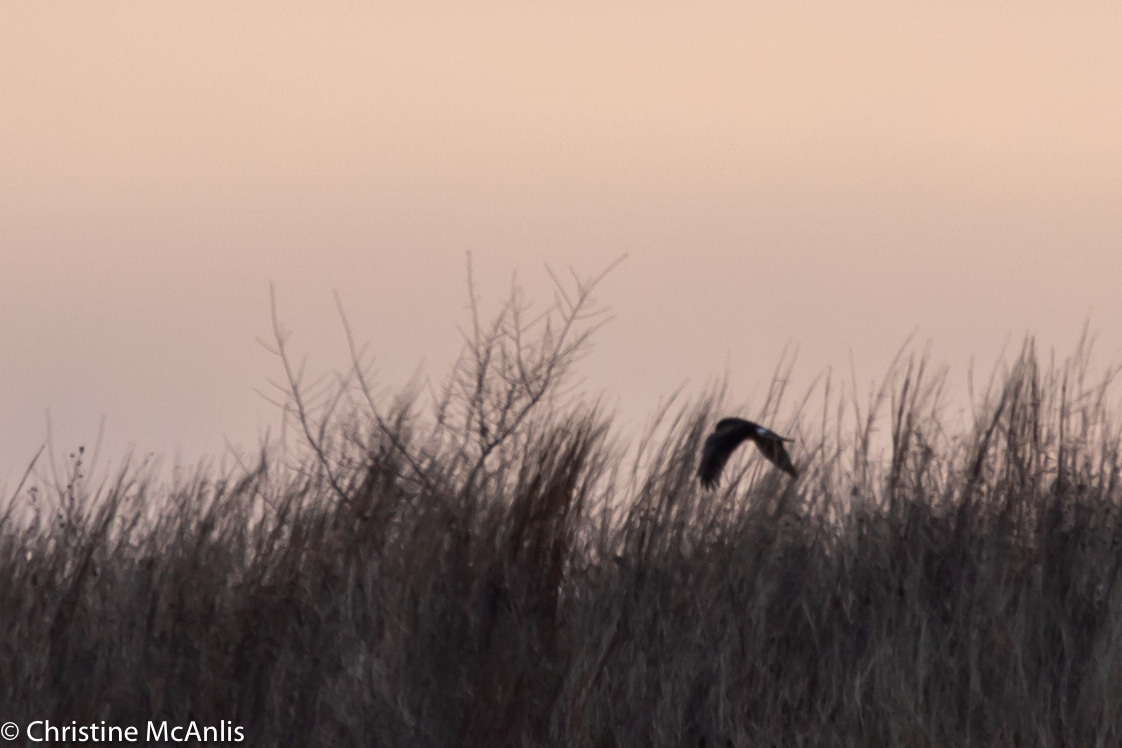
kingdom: Animalia
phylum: Chordata
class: Aves
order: Accipitriformes
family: Accipitridae
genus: Circus
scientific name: Circus cyaneus
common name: Hen harrier
